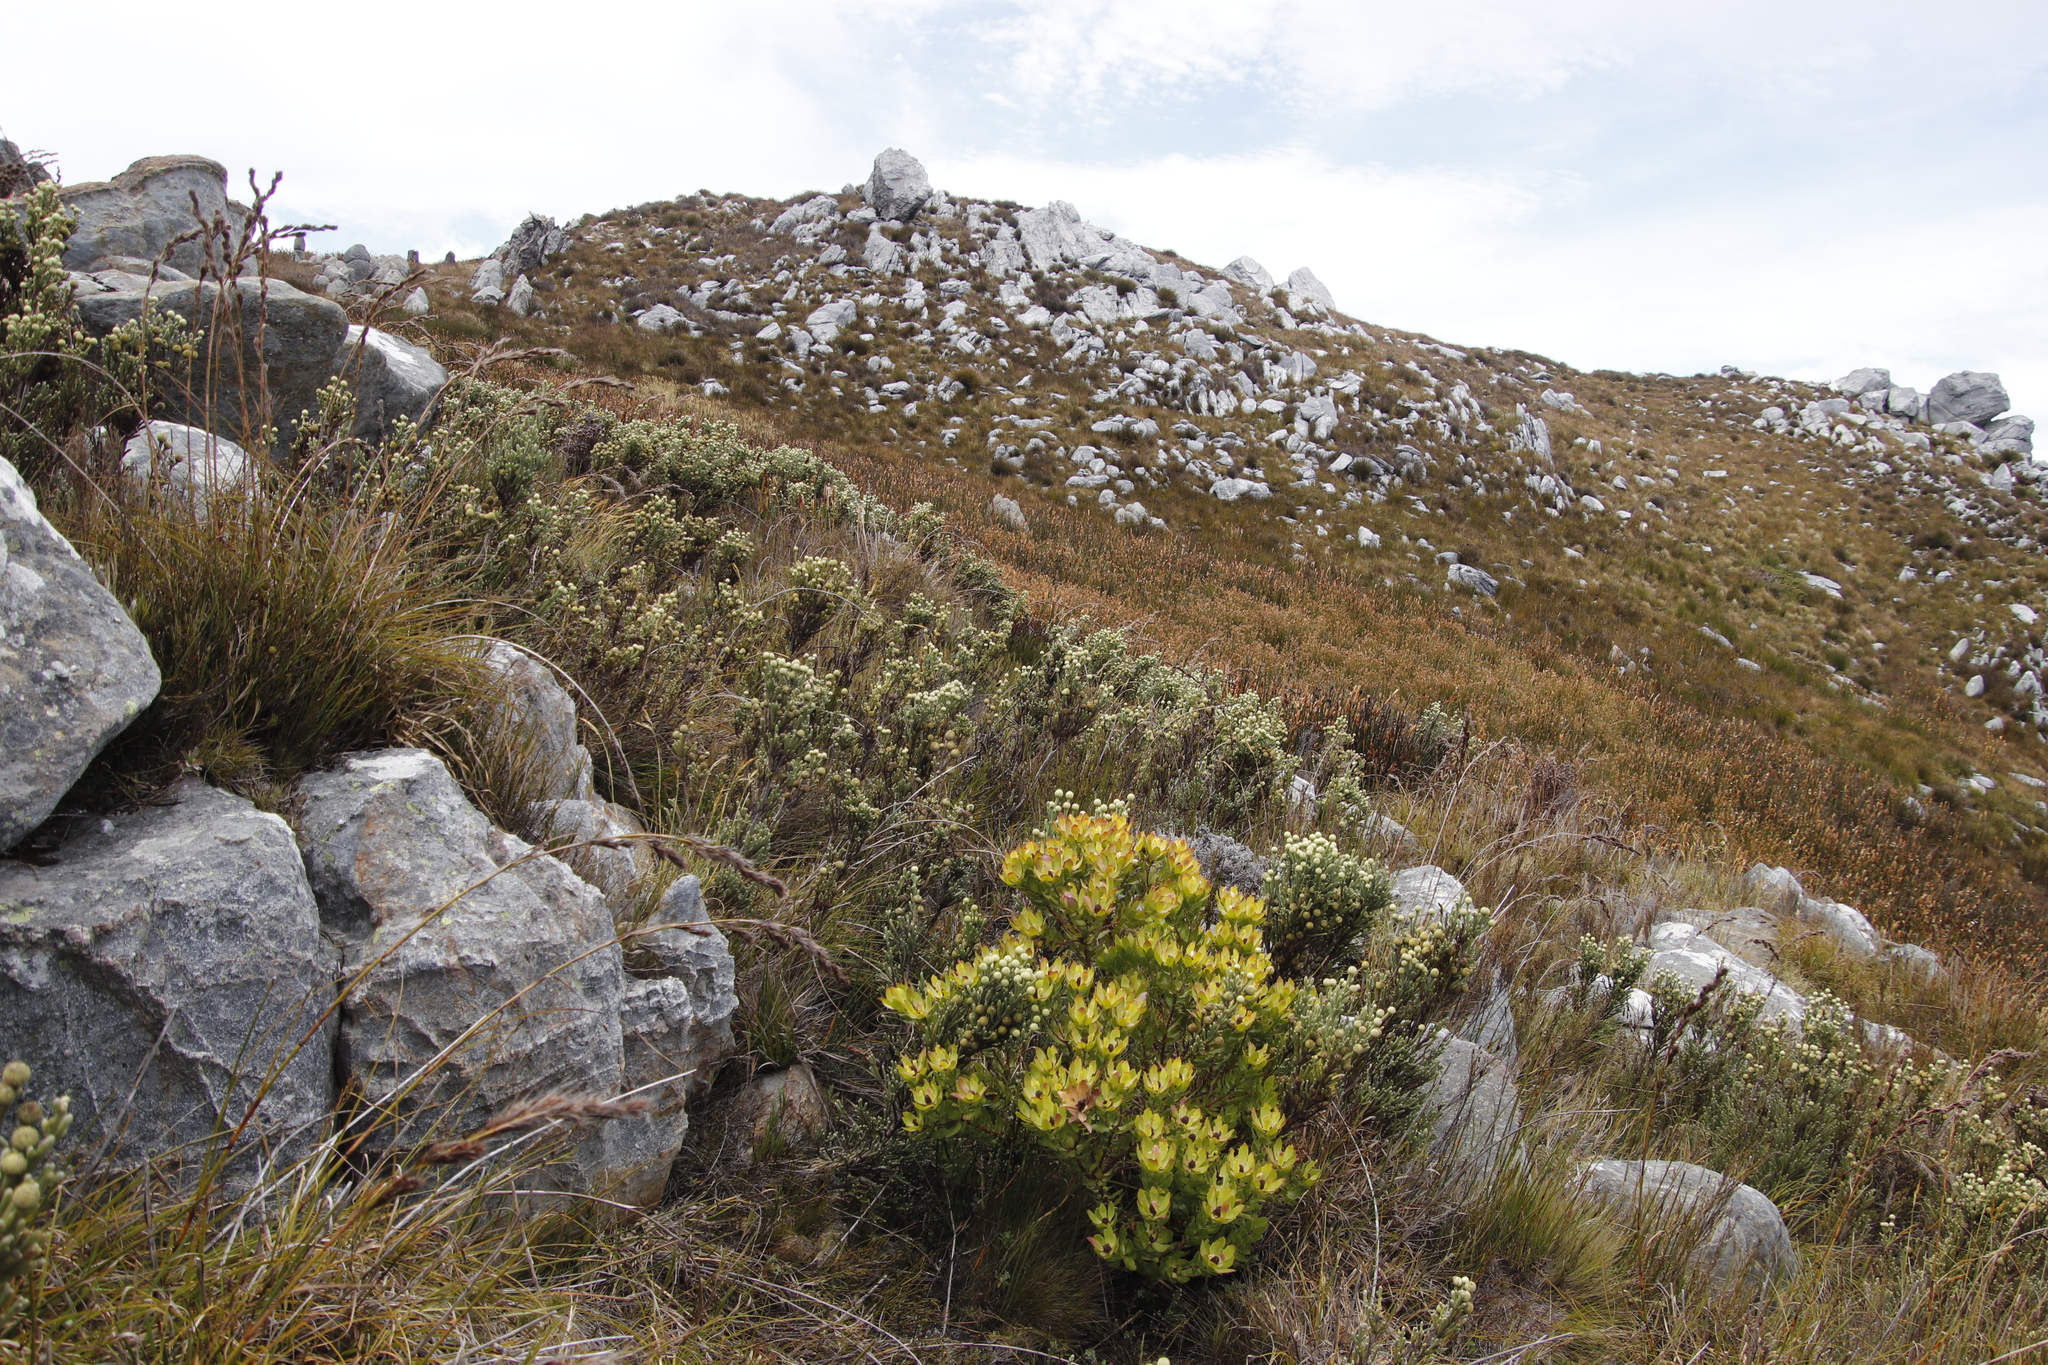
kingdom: Plantae
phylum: Tracheophyta
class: Magnoliopsida
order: Bruniales
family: Bruniaceae
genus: Brunia
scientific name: Brunia sphaerocephala
